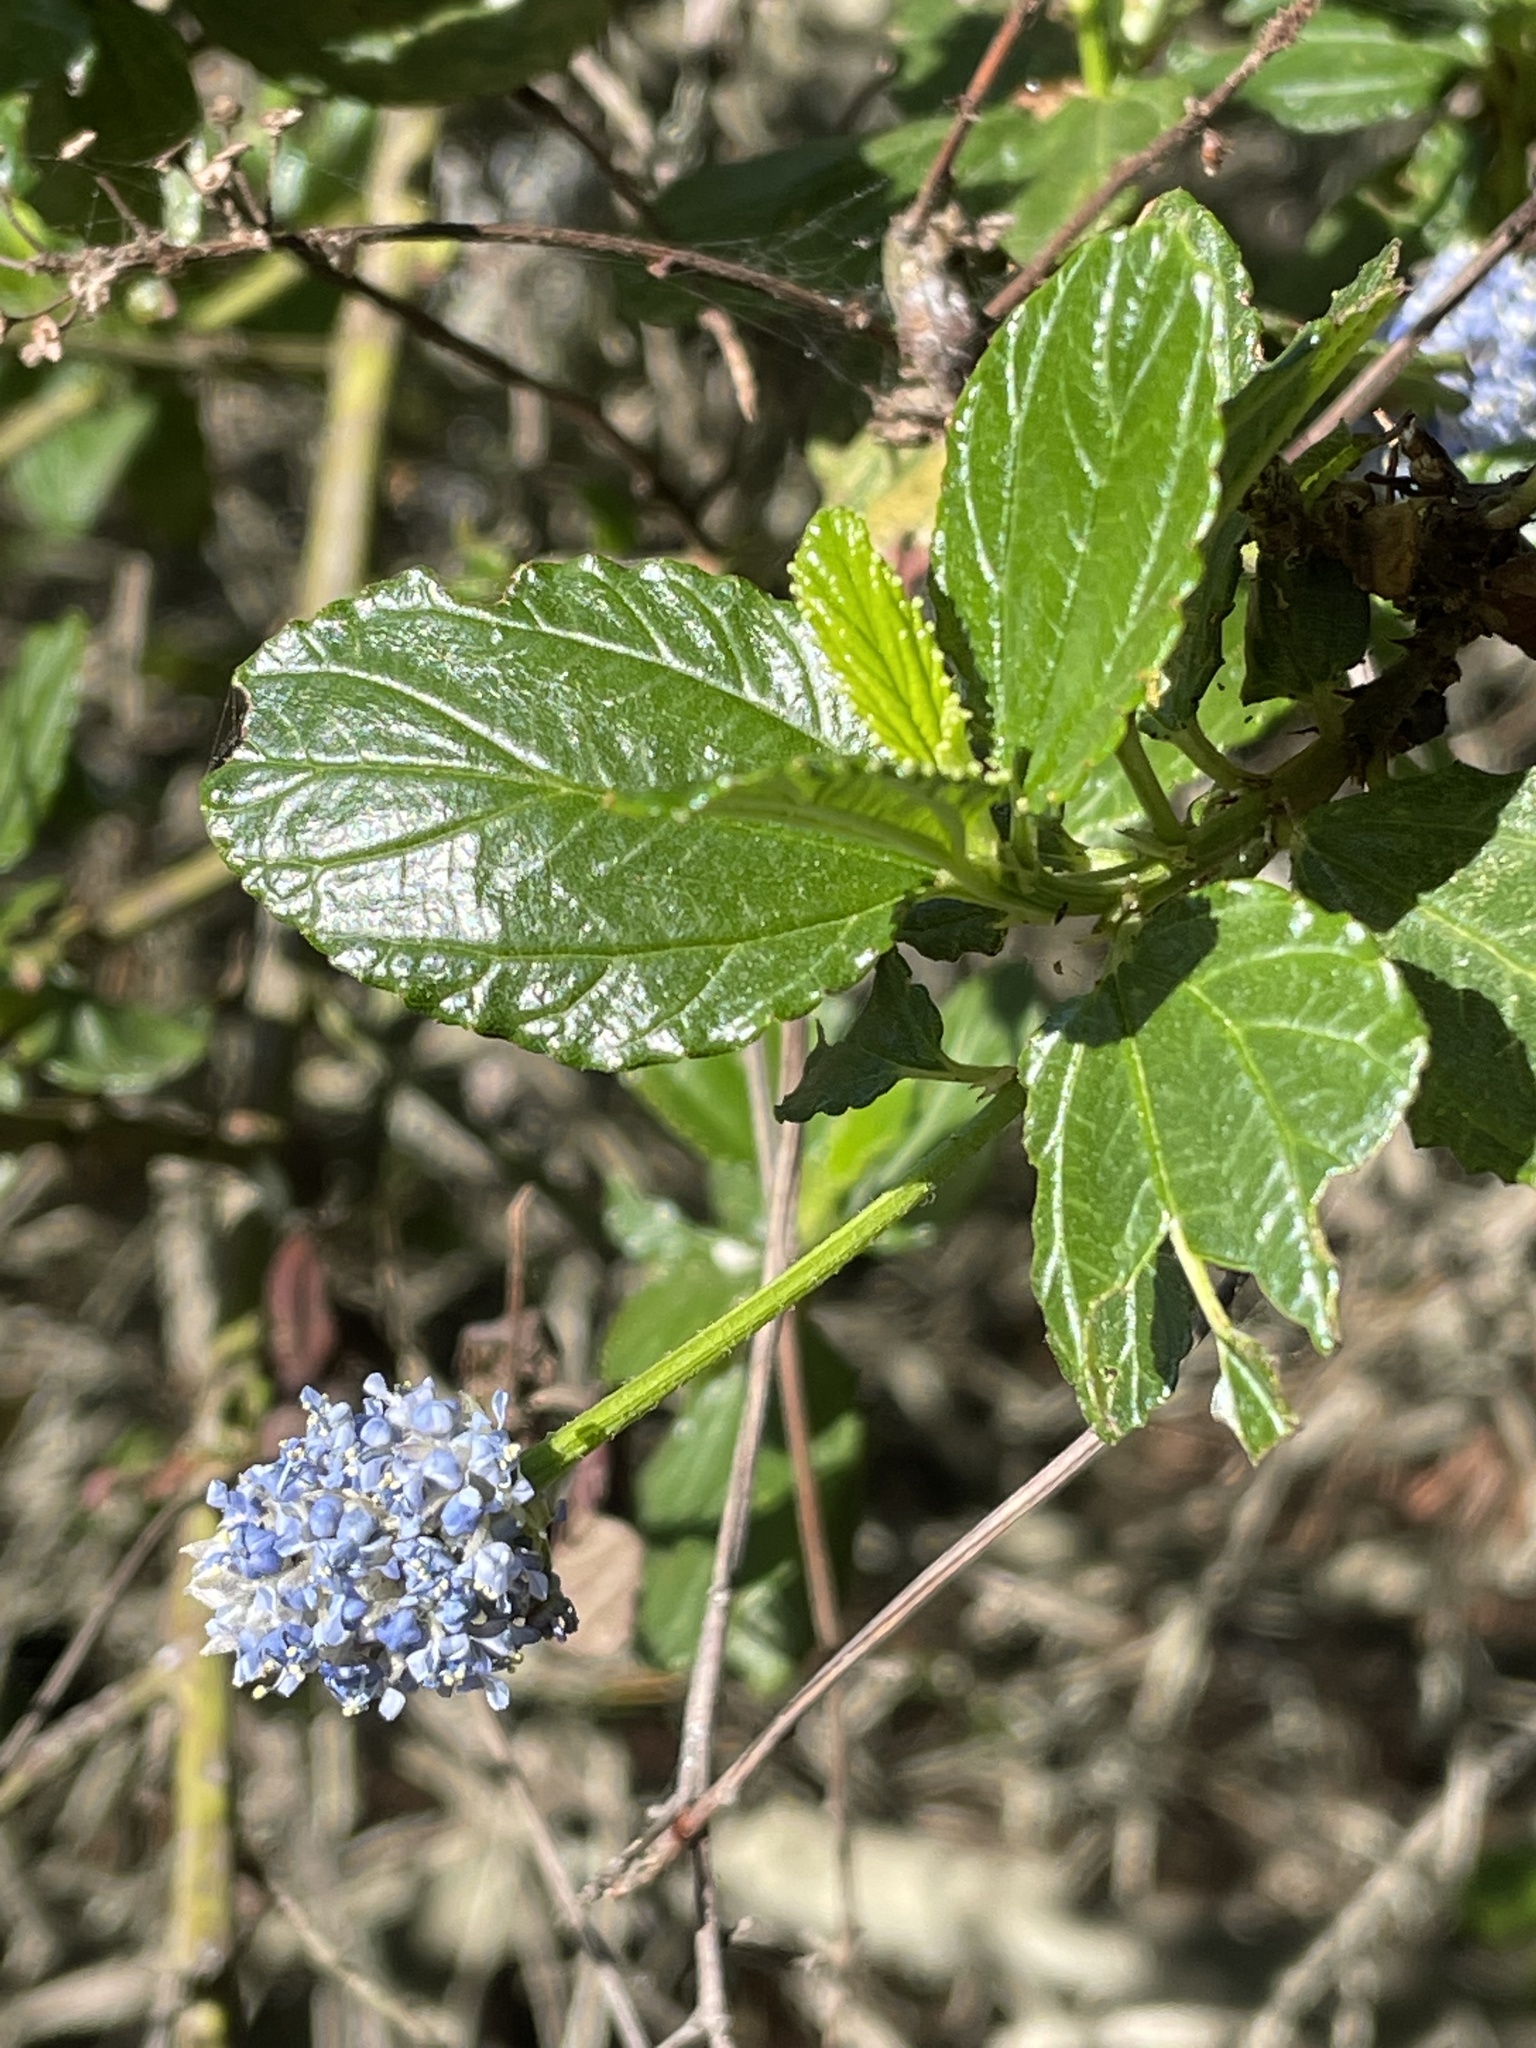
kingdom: Plantae
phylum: Tracheophyta
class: Magnoliopsida
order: Rosales
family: Rhamnaceae
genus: Ceanothus
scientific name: Ceanothus thyrsiflorus
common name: California-lilac
